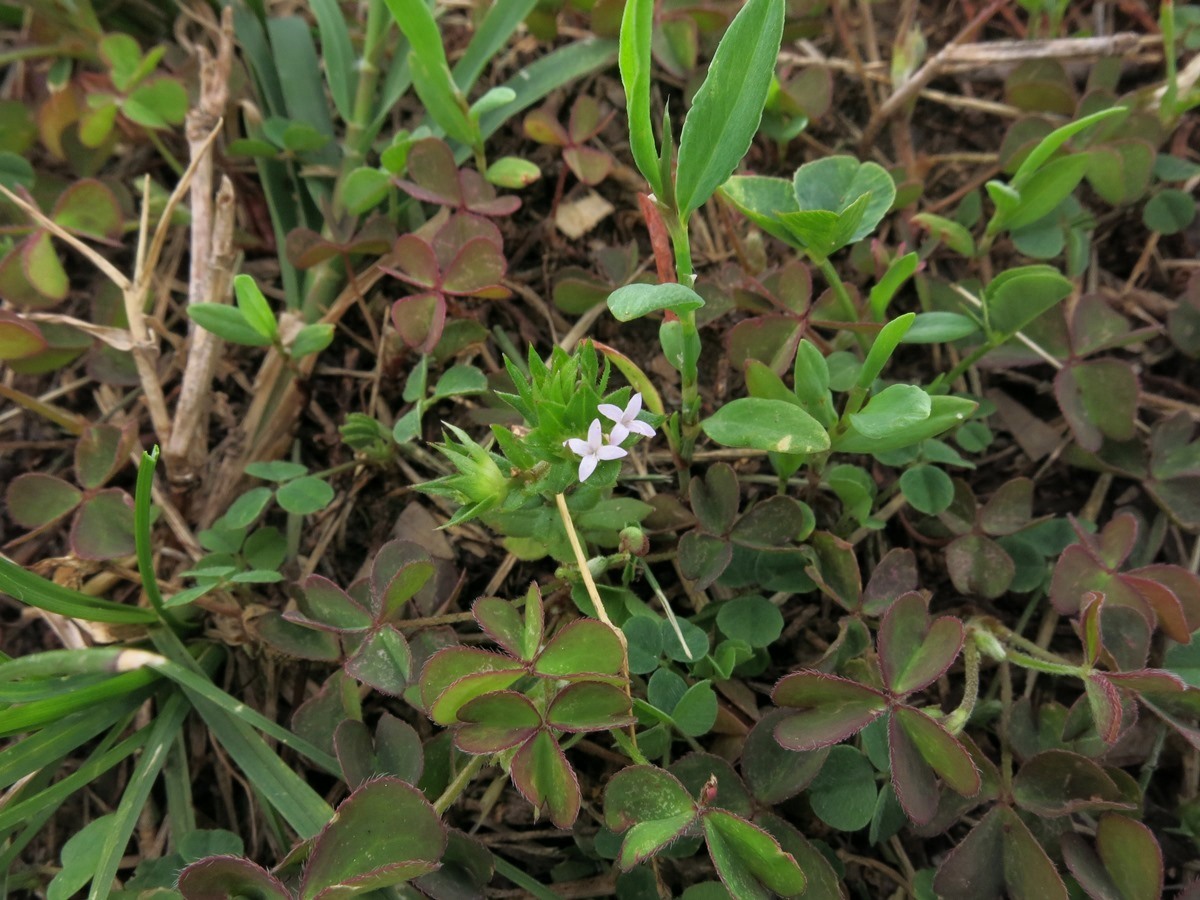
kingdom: Plantae
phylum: Tracheophyta
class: Magnoliopsida
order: Gentianales
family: Rubiaceae
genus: Sherardia
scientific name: Sherardia arvensis
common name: Field madder
